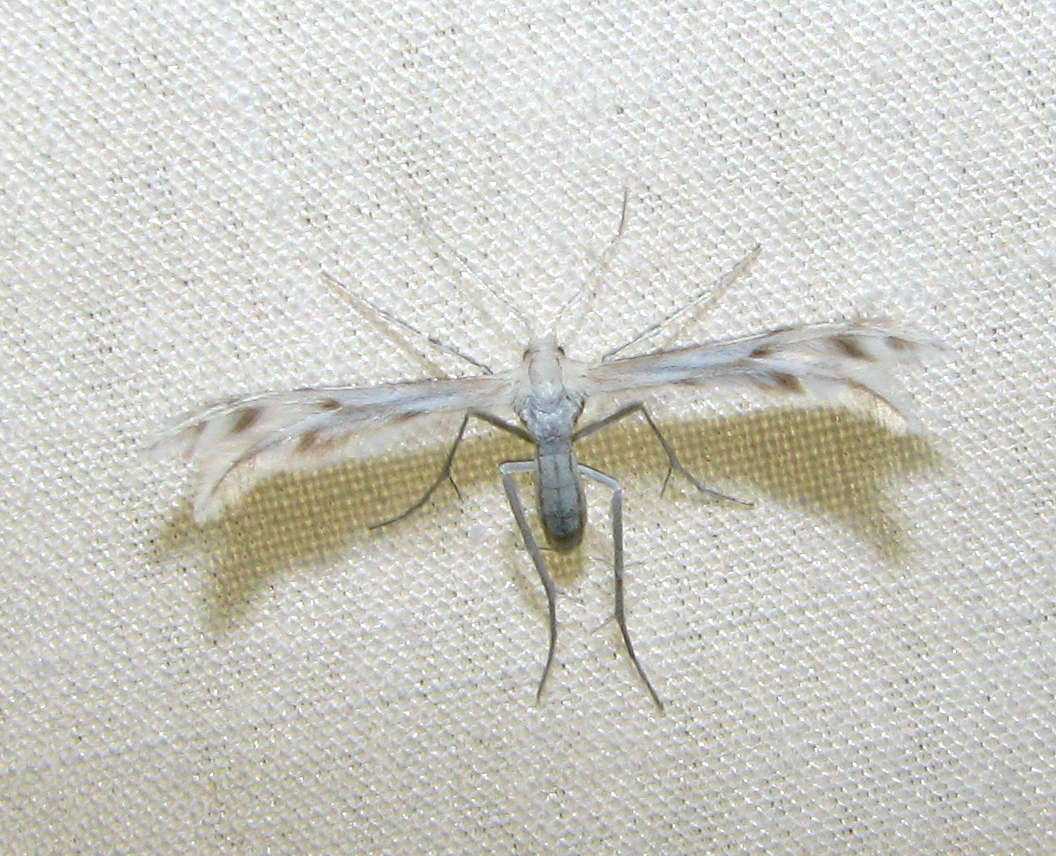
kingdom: Animalia
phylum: Arthropoda
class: Insecta
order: Lepidoptera
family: Pterophoridae
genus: Wheeleria
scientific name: Wheeleria spilodactylus
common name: Horehound plume
